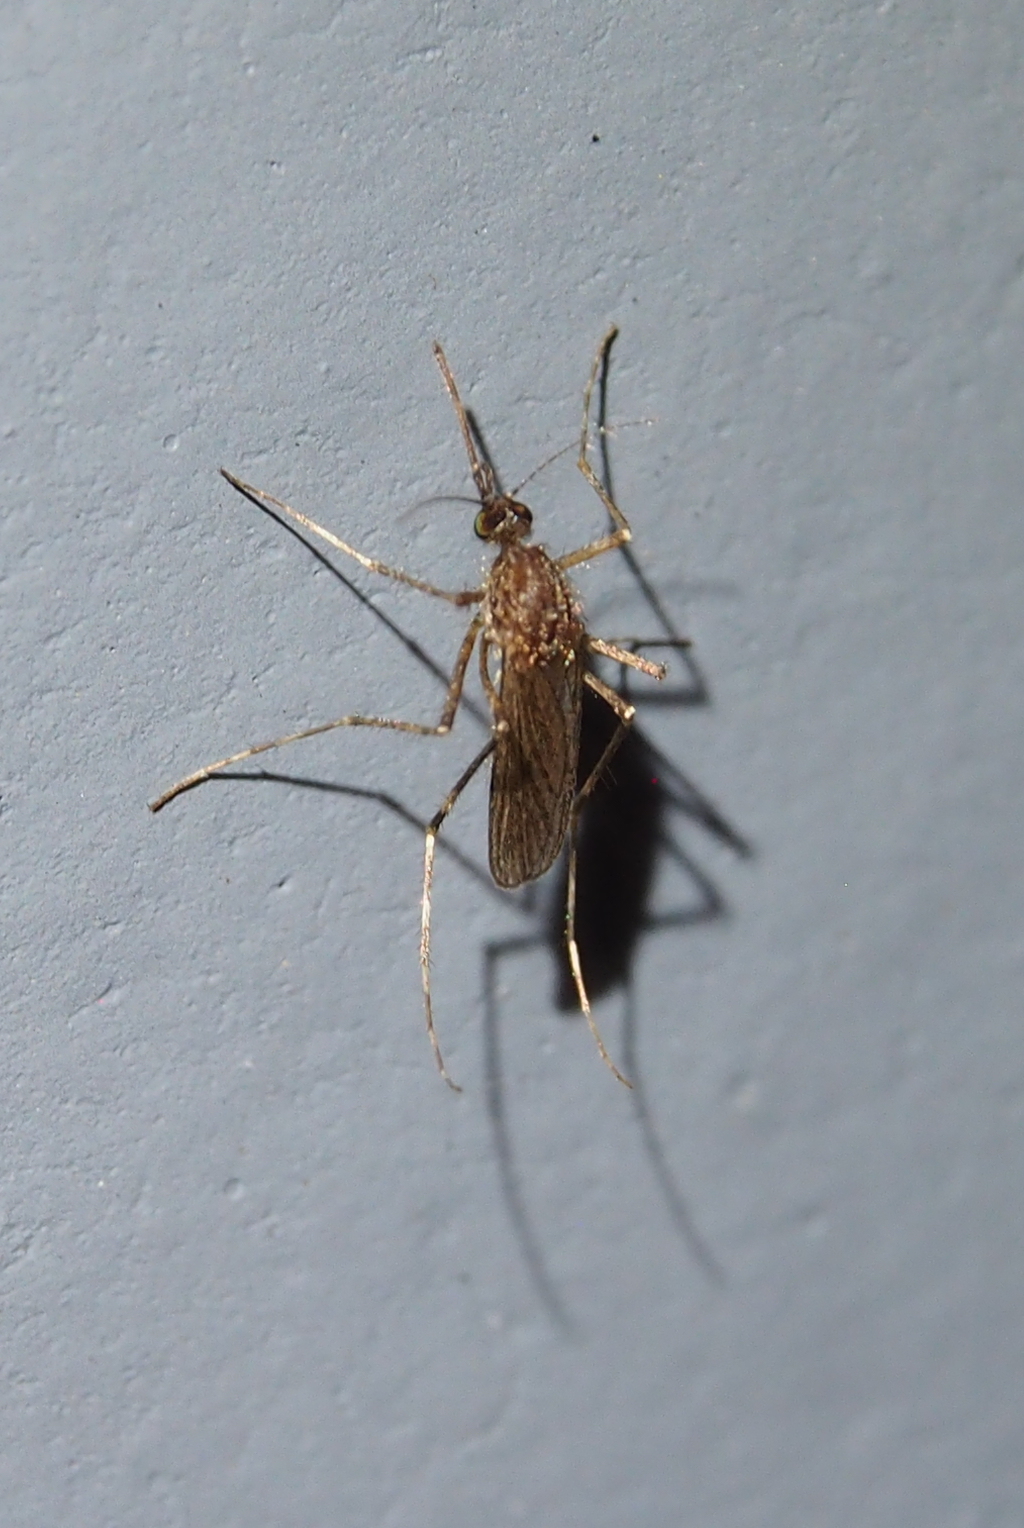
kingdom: Animalia
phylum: Arthropoda
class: Insecta
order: Diptera
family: Culicidae
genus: Coquillettidia
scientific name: Coquillettidia perturbans
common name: Cattail mosquito
